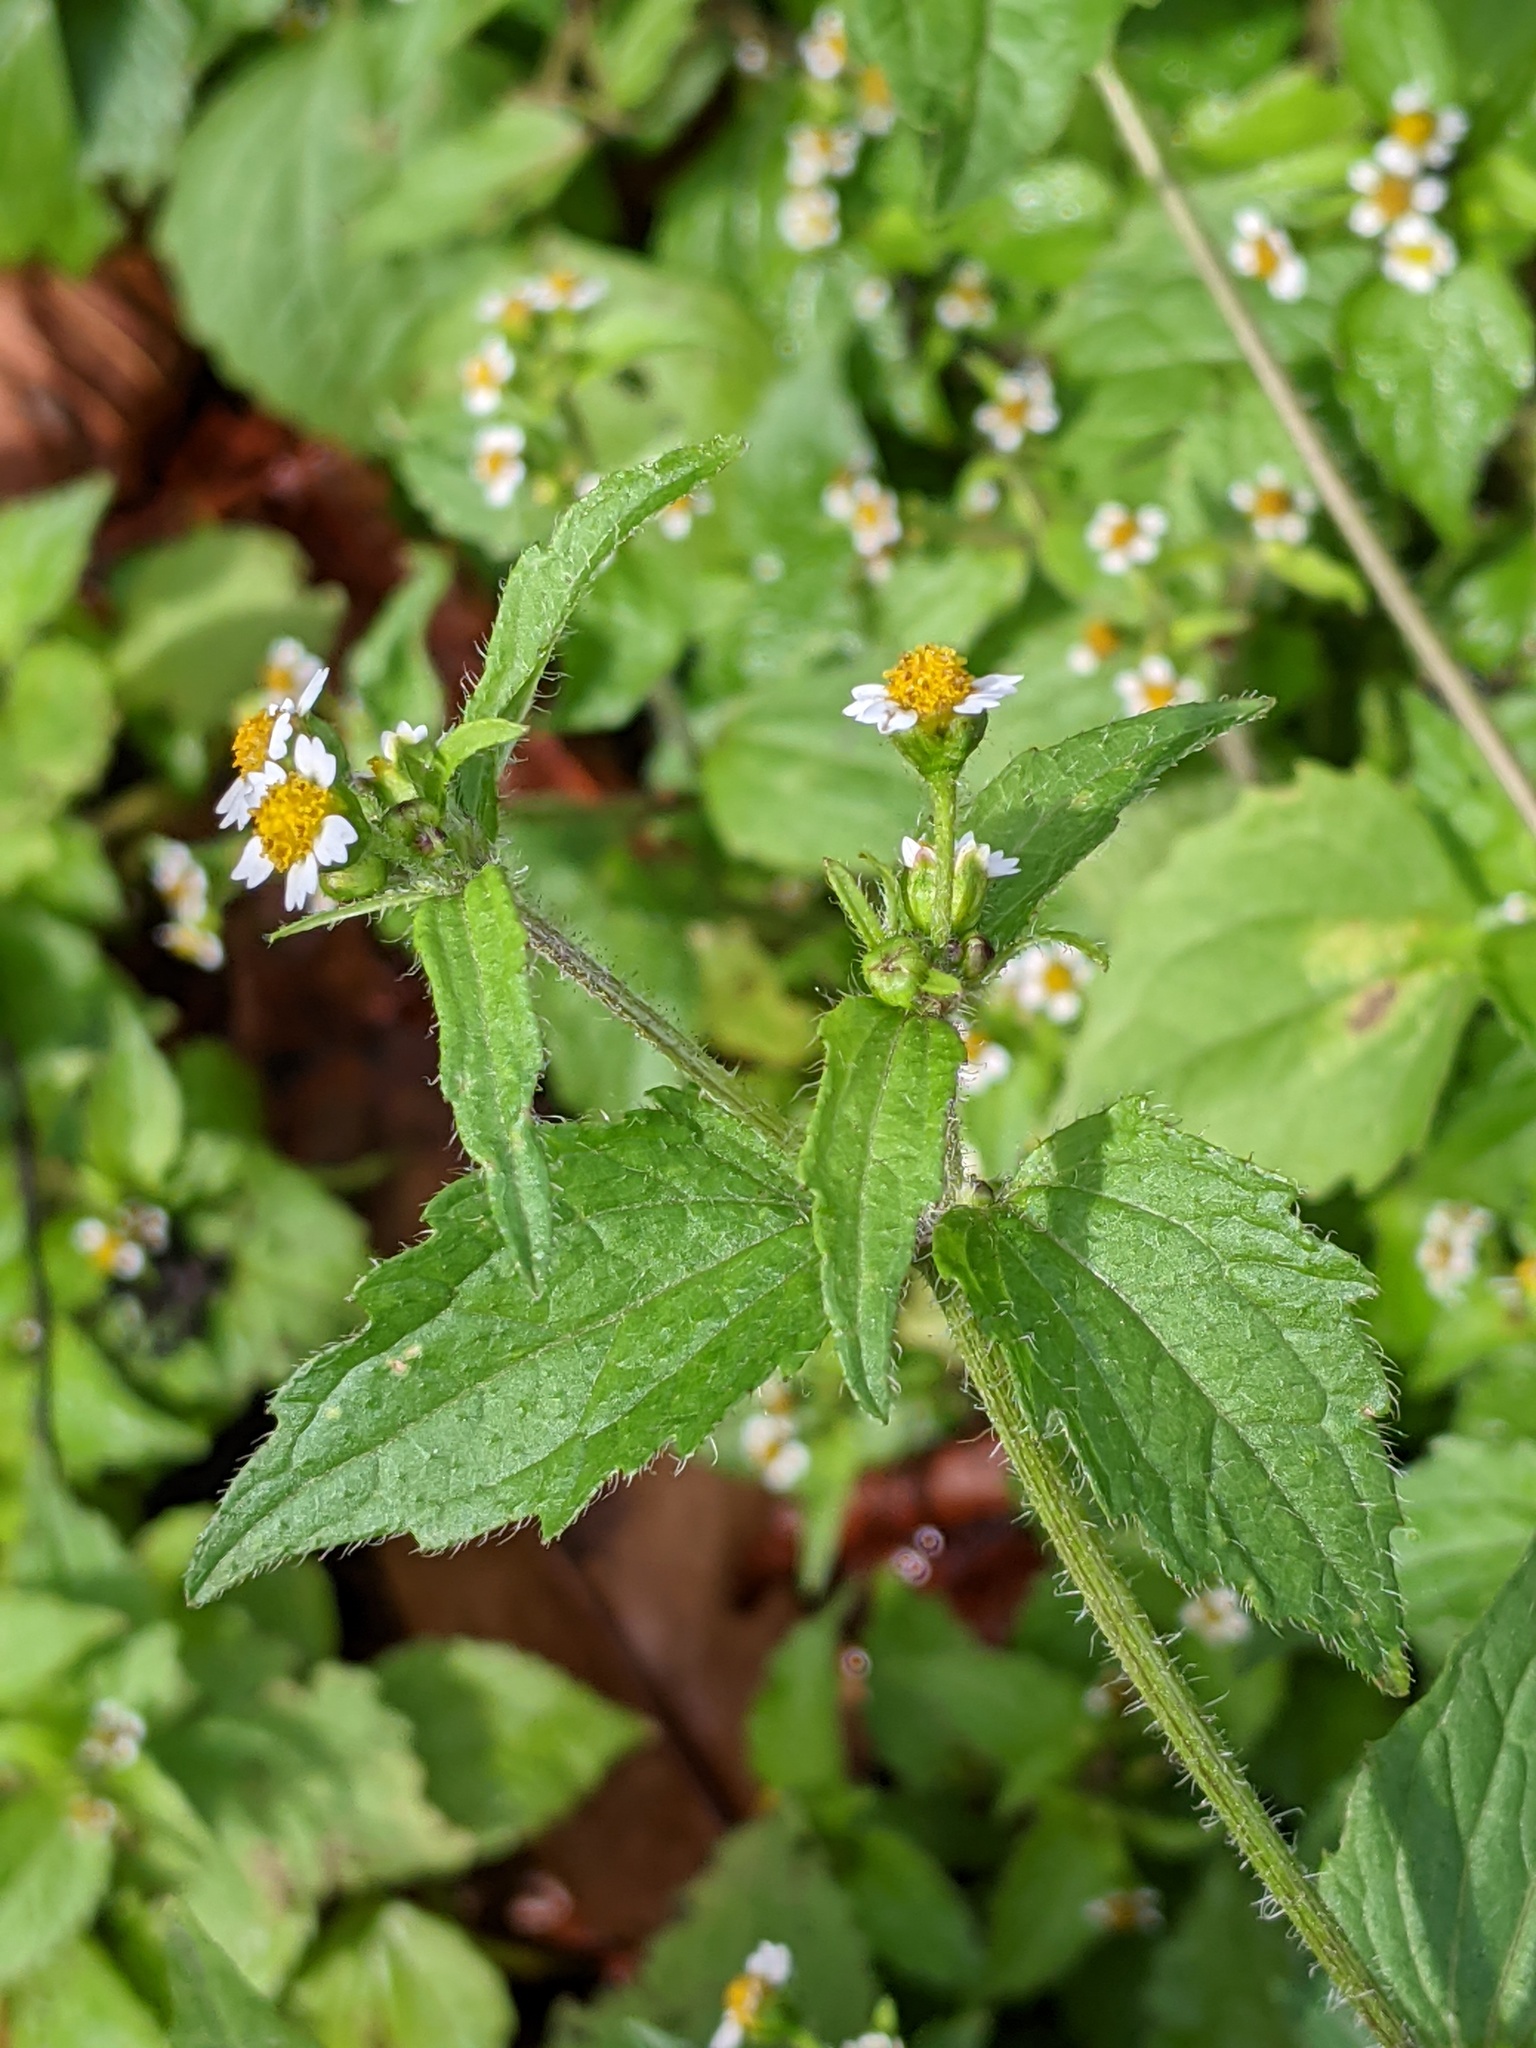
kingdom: Plantae
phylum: Tracheophyta
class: Magnoliopsida
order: Asterales
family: Asteraceae
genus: Galinsoga
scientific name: Galinsoga quadriradiata
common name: Shaggy soldier
